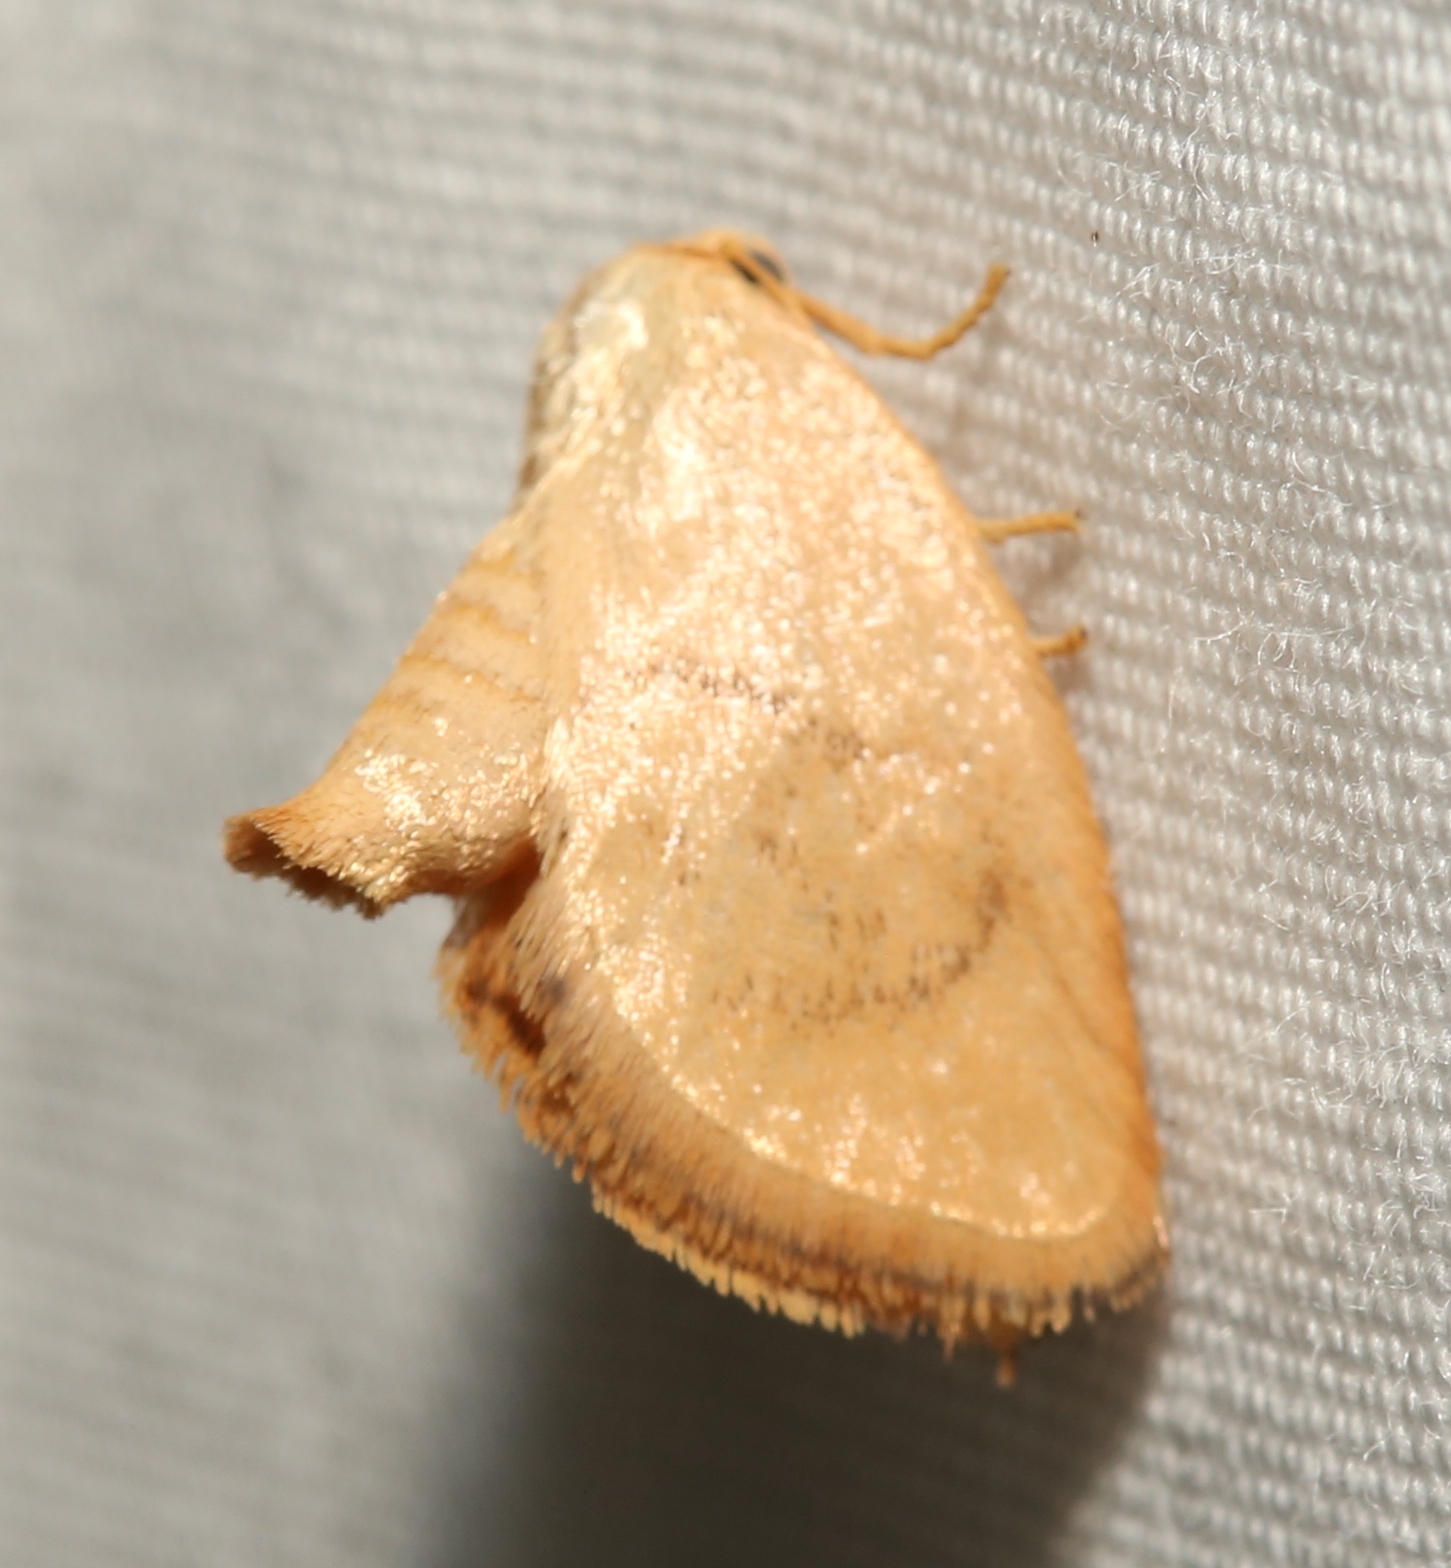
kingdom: Animalia
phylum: Arthropoda
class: Insecta
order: Lepidoptera
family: Limacodidae
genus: Tortricidia
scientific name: Tortricidia pallida
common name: Red-crossed button slug moth
